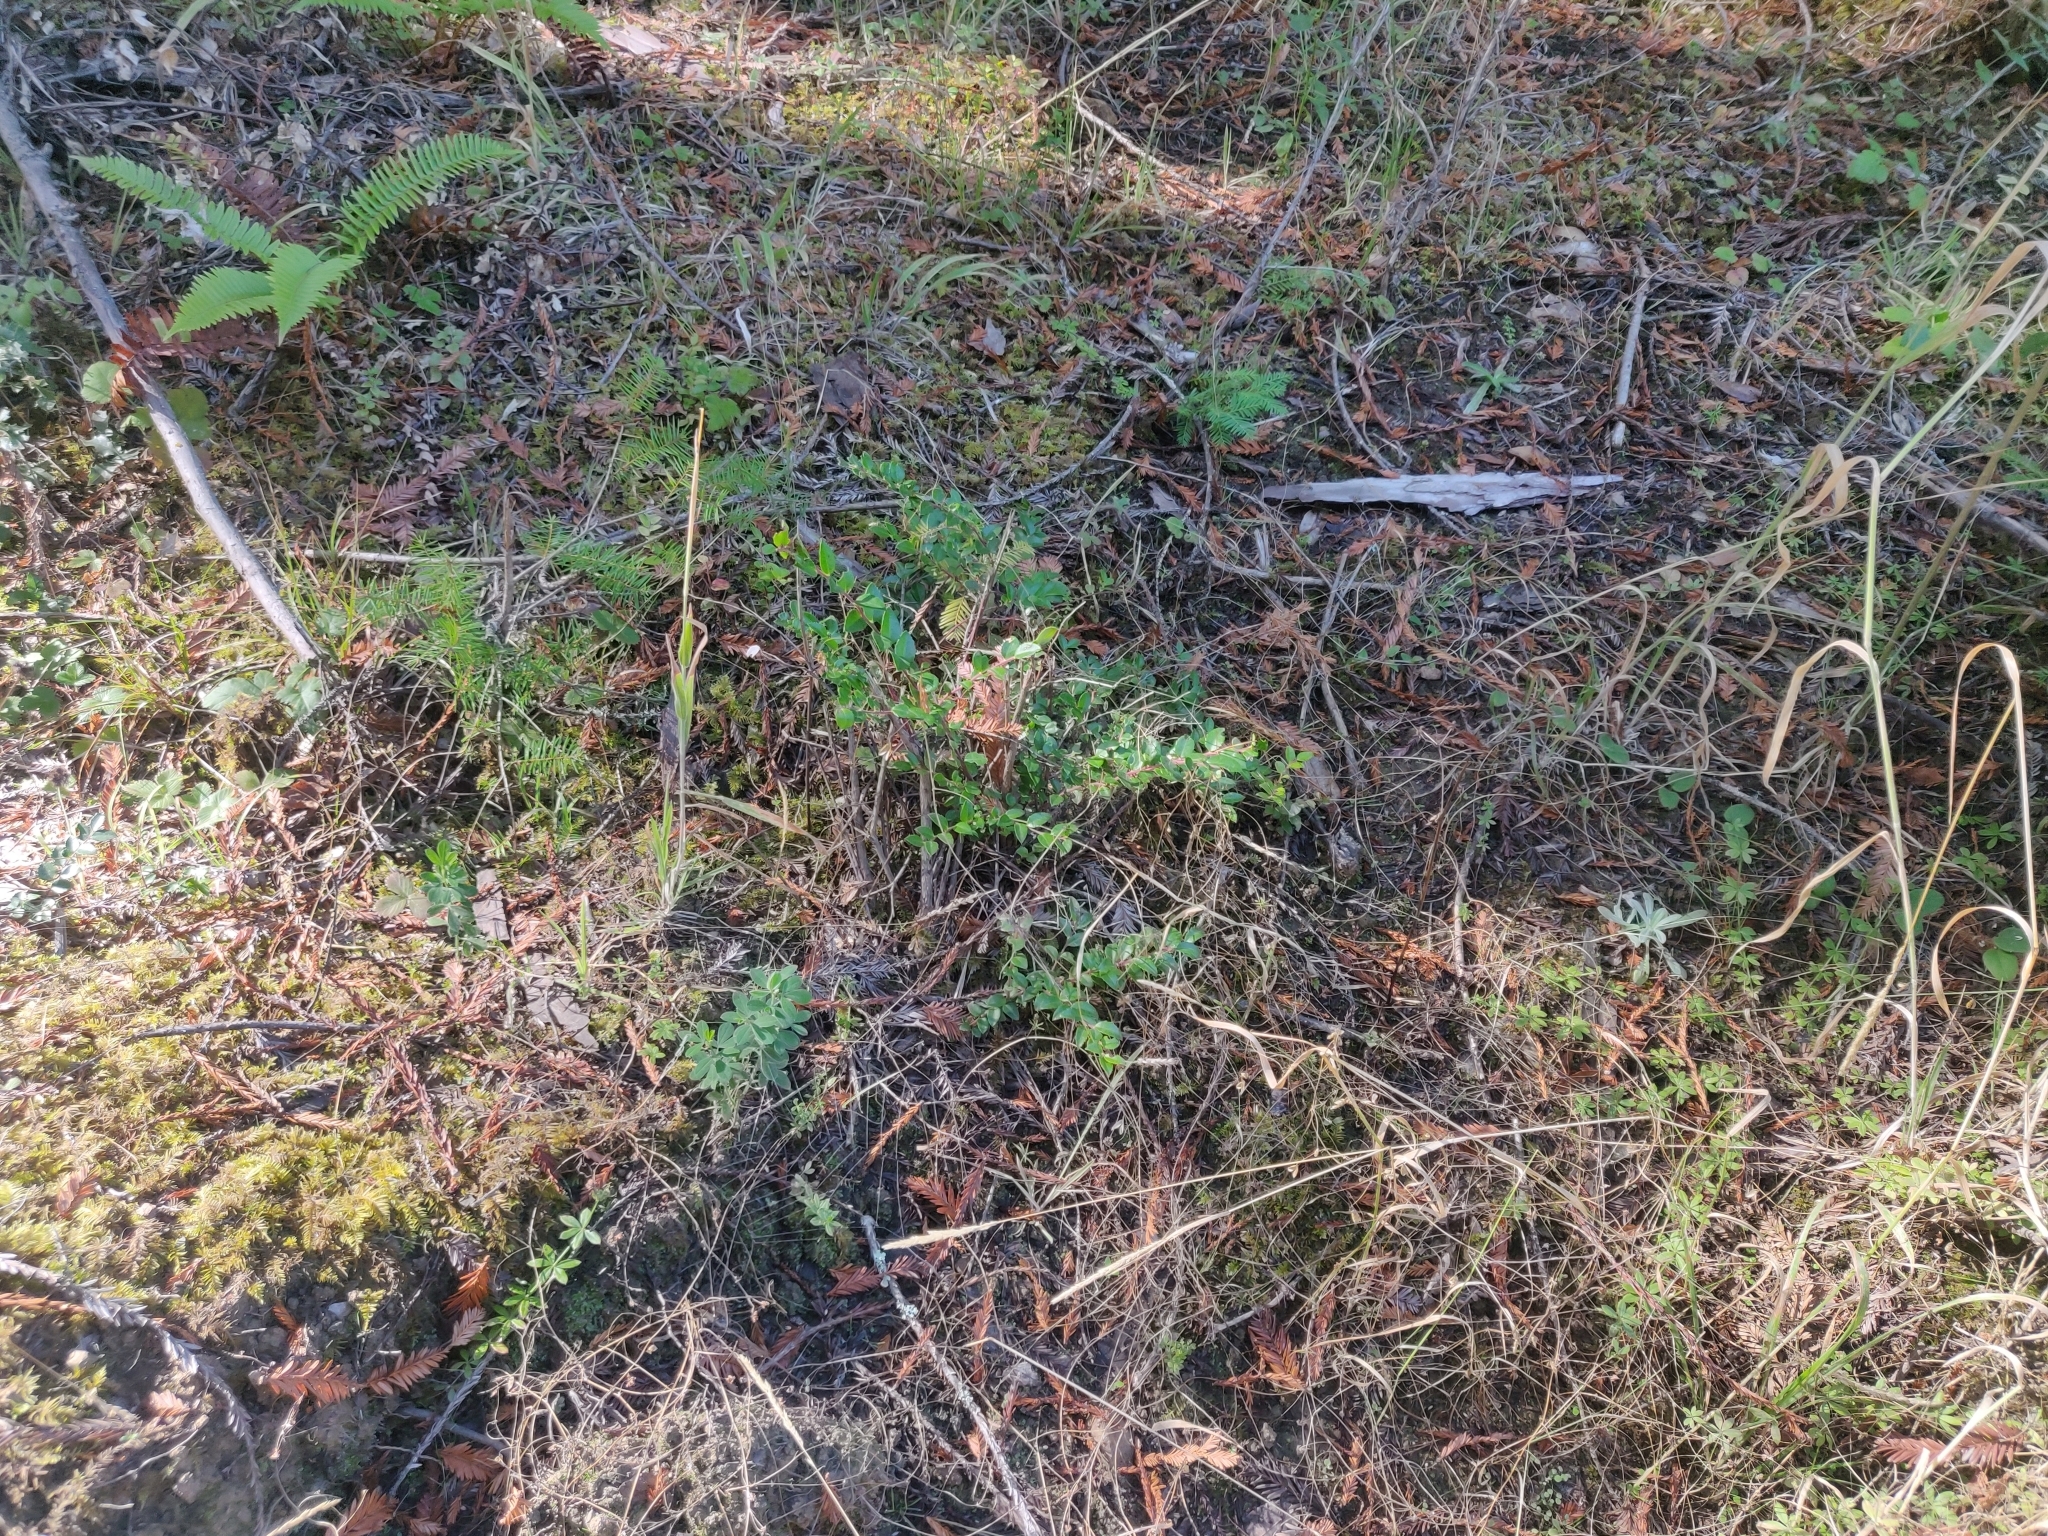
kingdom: Plantae
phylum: Tracheophyta
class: Magnoliopsida
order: Ericales
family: Ericaceae
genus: Vaccinium
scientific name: Vaccinium ovatum
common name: California-huckleberry
